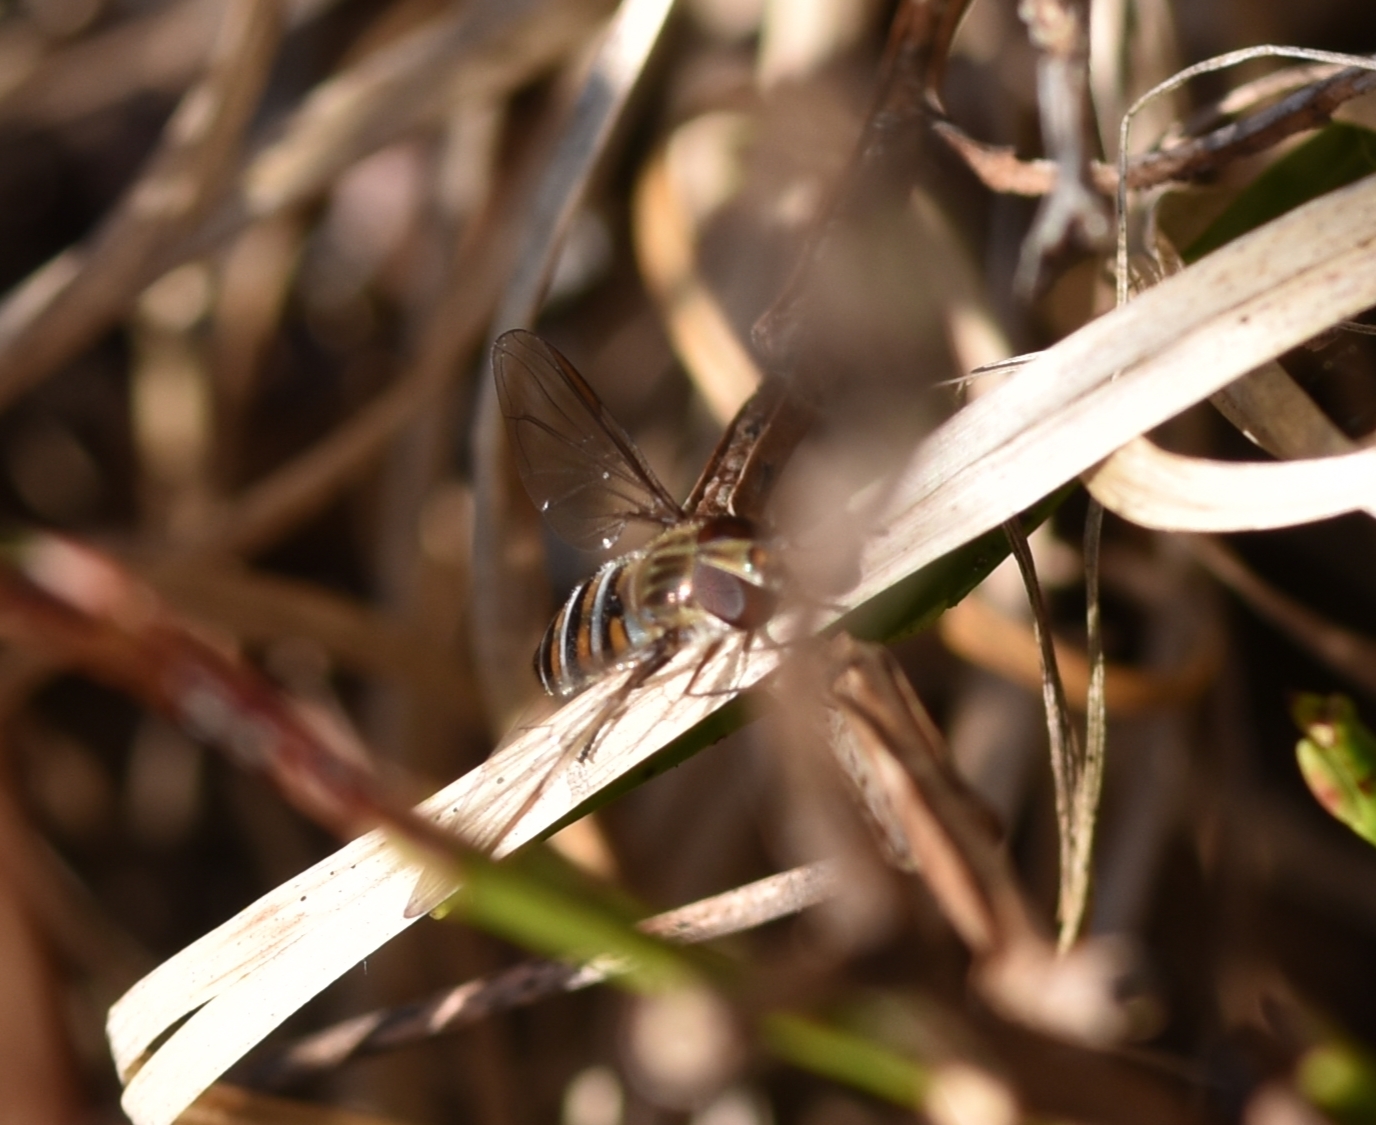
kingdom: Animalia
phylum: Arthropoda
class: Insecta
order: Diptera
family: Syrphidae
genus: Episyrphus
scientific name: Episyrphus balteatus
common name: Marmalade hoverfly
